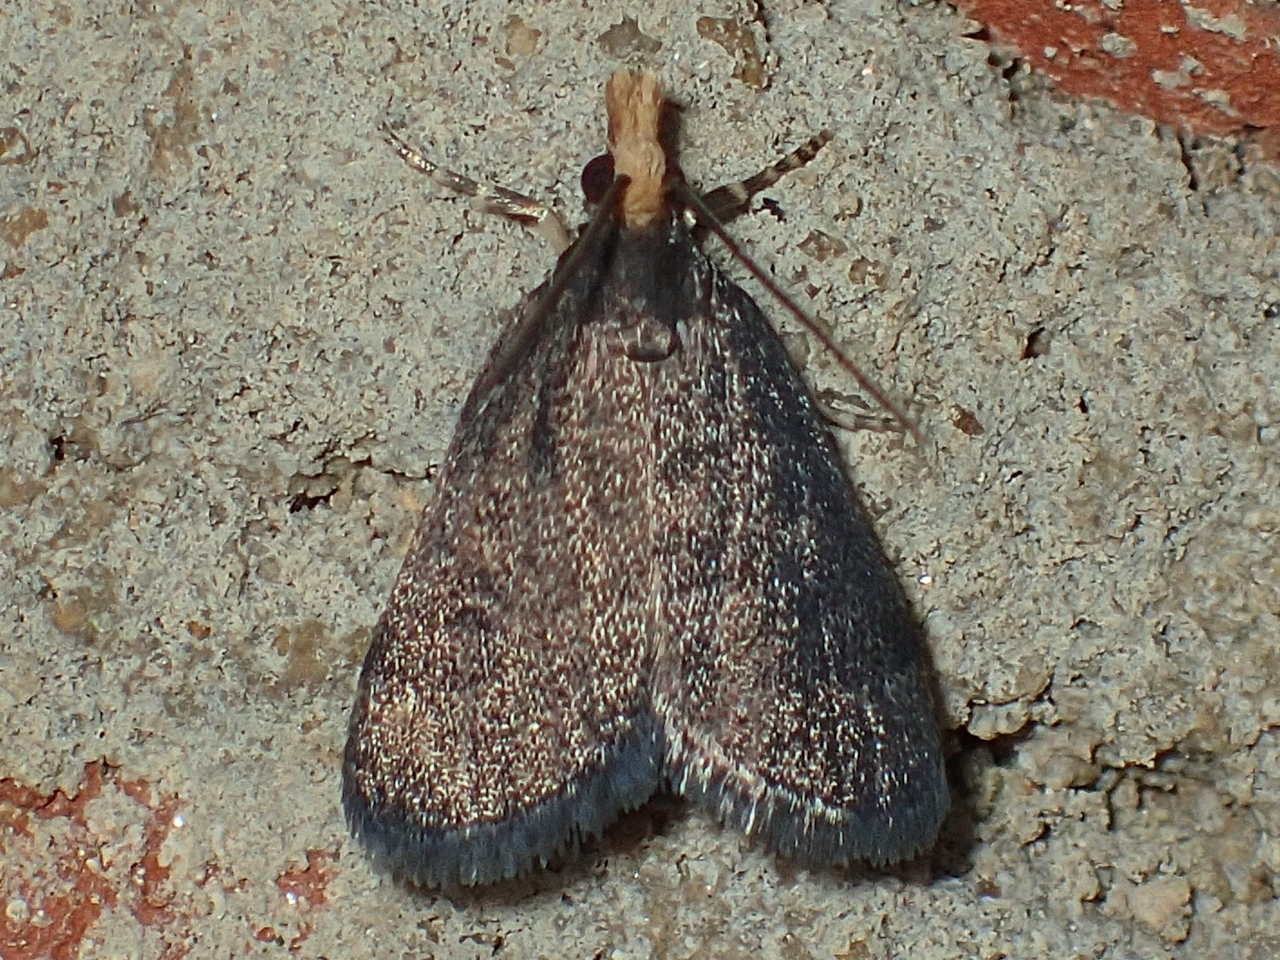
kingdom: Animalia
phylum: Arthropoda
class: Insecta
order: Lepidoptera
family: Crambidae
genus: Pyrausta
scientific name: Pyrausta merrickalis
